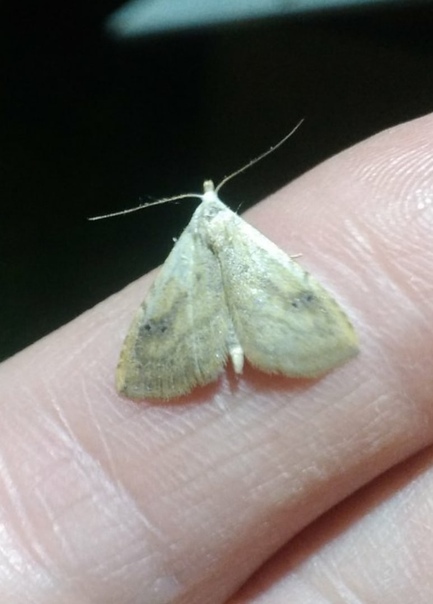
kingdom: Animalia
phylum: Arthropoda
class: Insecta
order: Lepidoptera
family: Erebidae
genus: Rivula
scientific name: Rivula sericealis
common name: Straw dot
